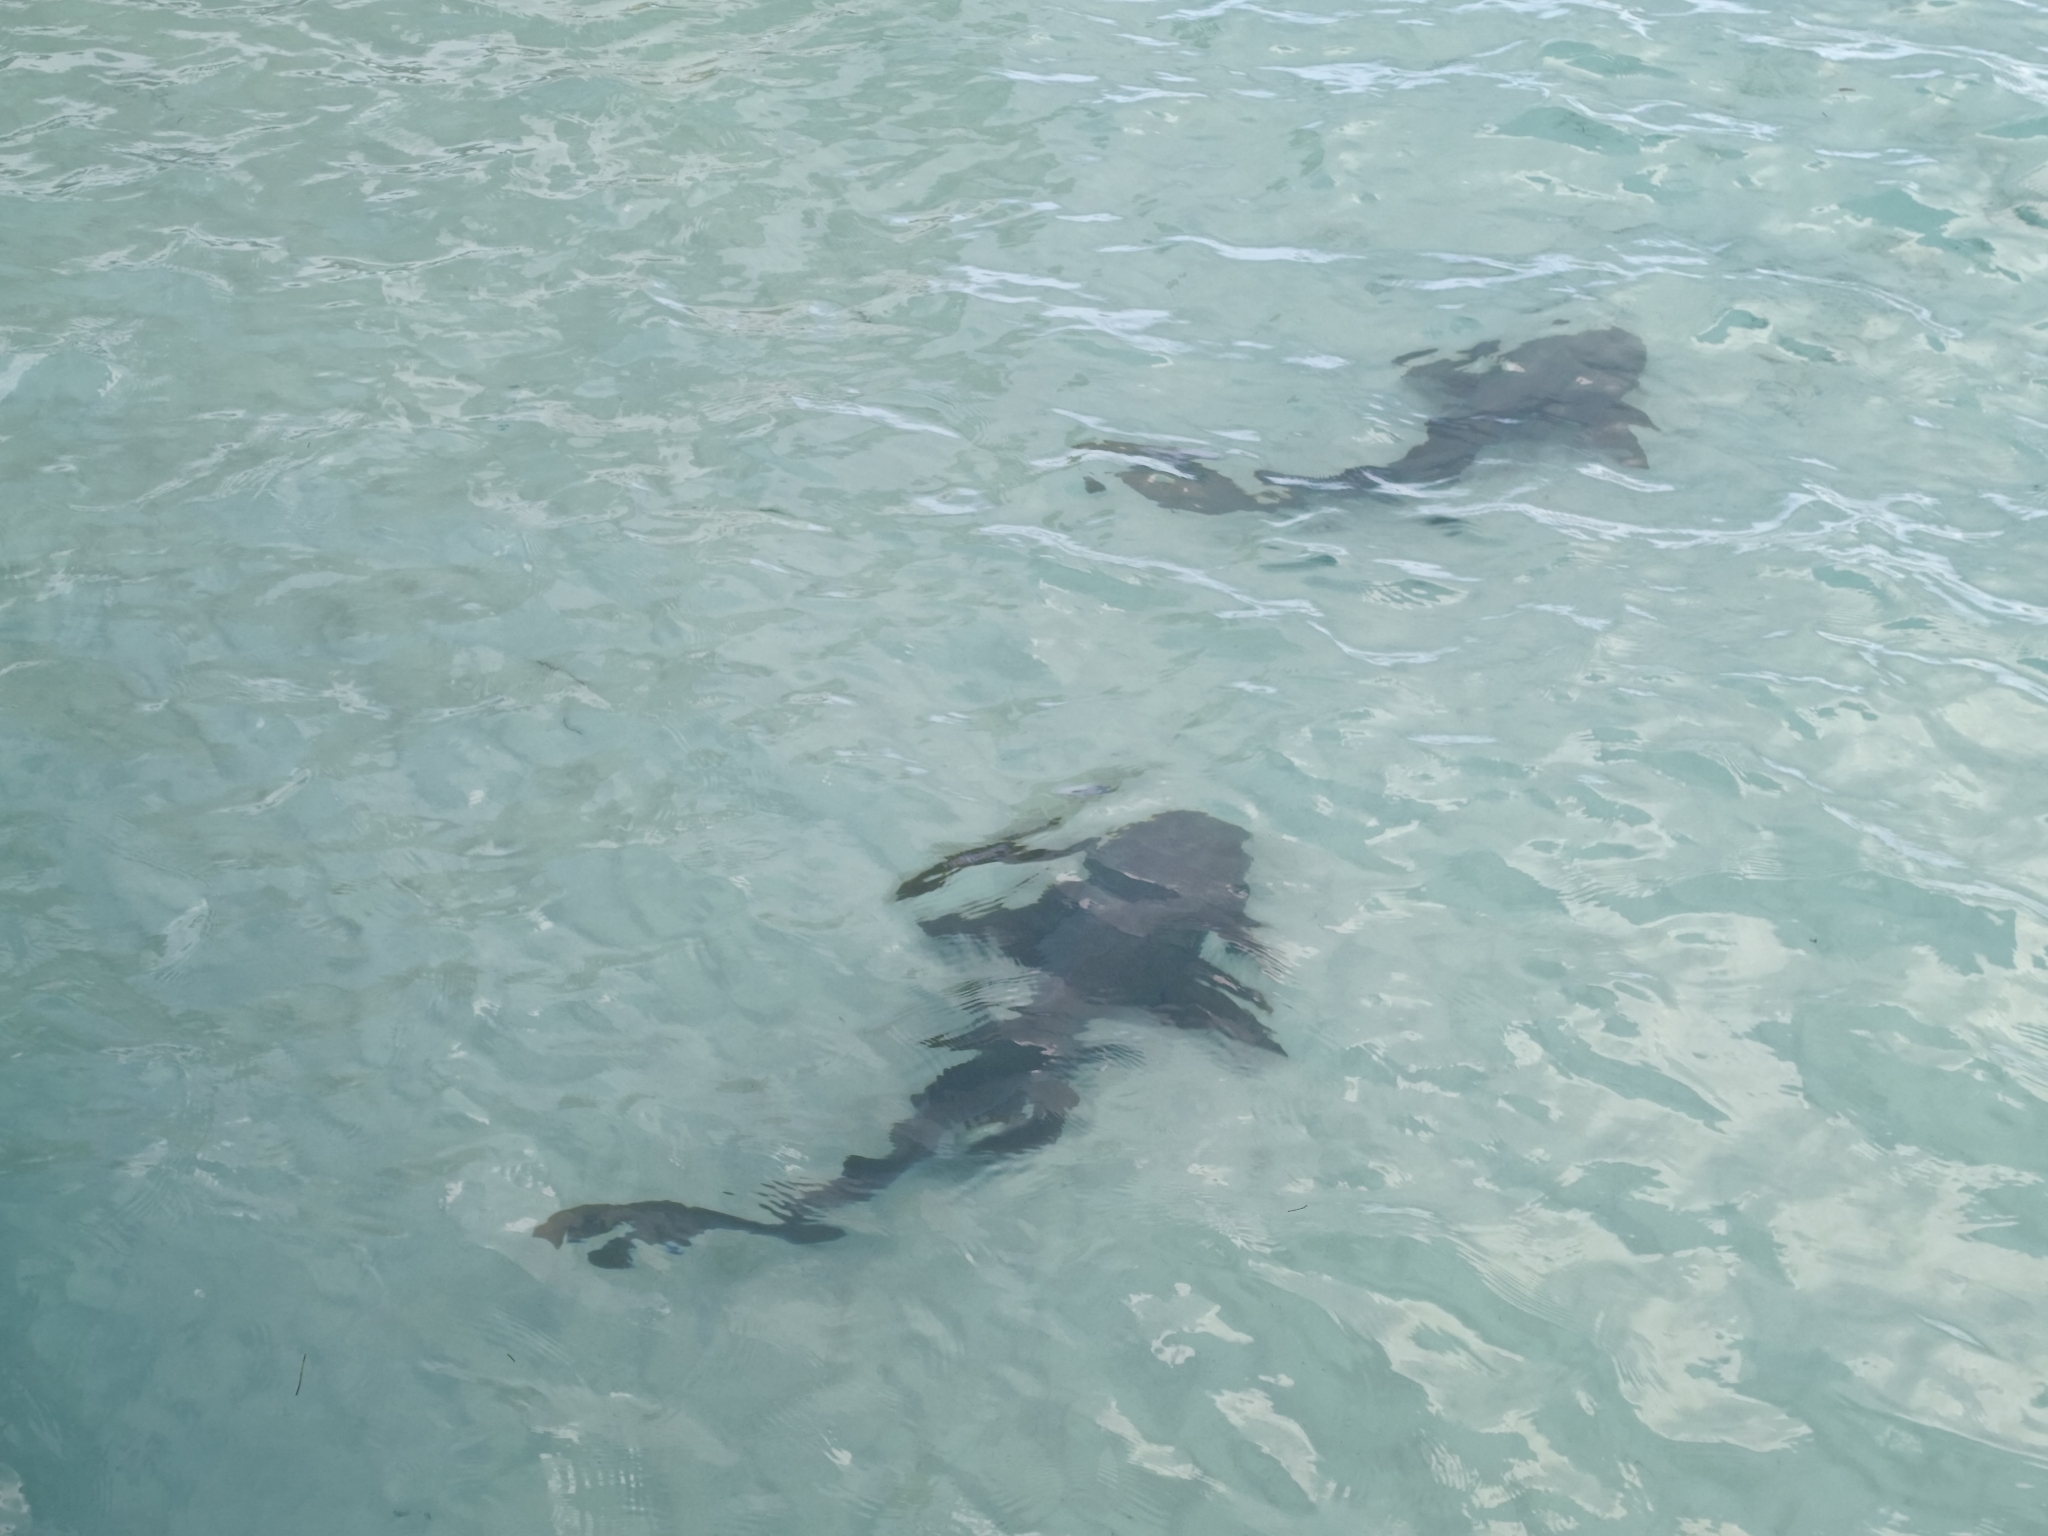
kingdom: Animalia
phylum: Chordata
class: Elasmobranchii
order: Orectolobiformes
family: Ginglymostomatidae
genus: Ginglymostoma
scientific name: Ginglymostoma cirratum
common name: Nurse shark
